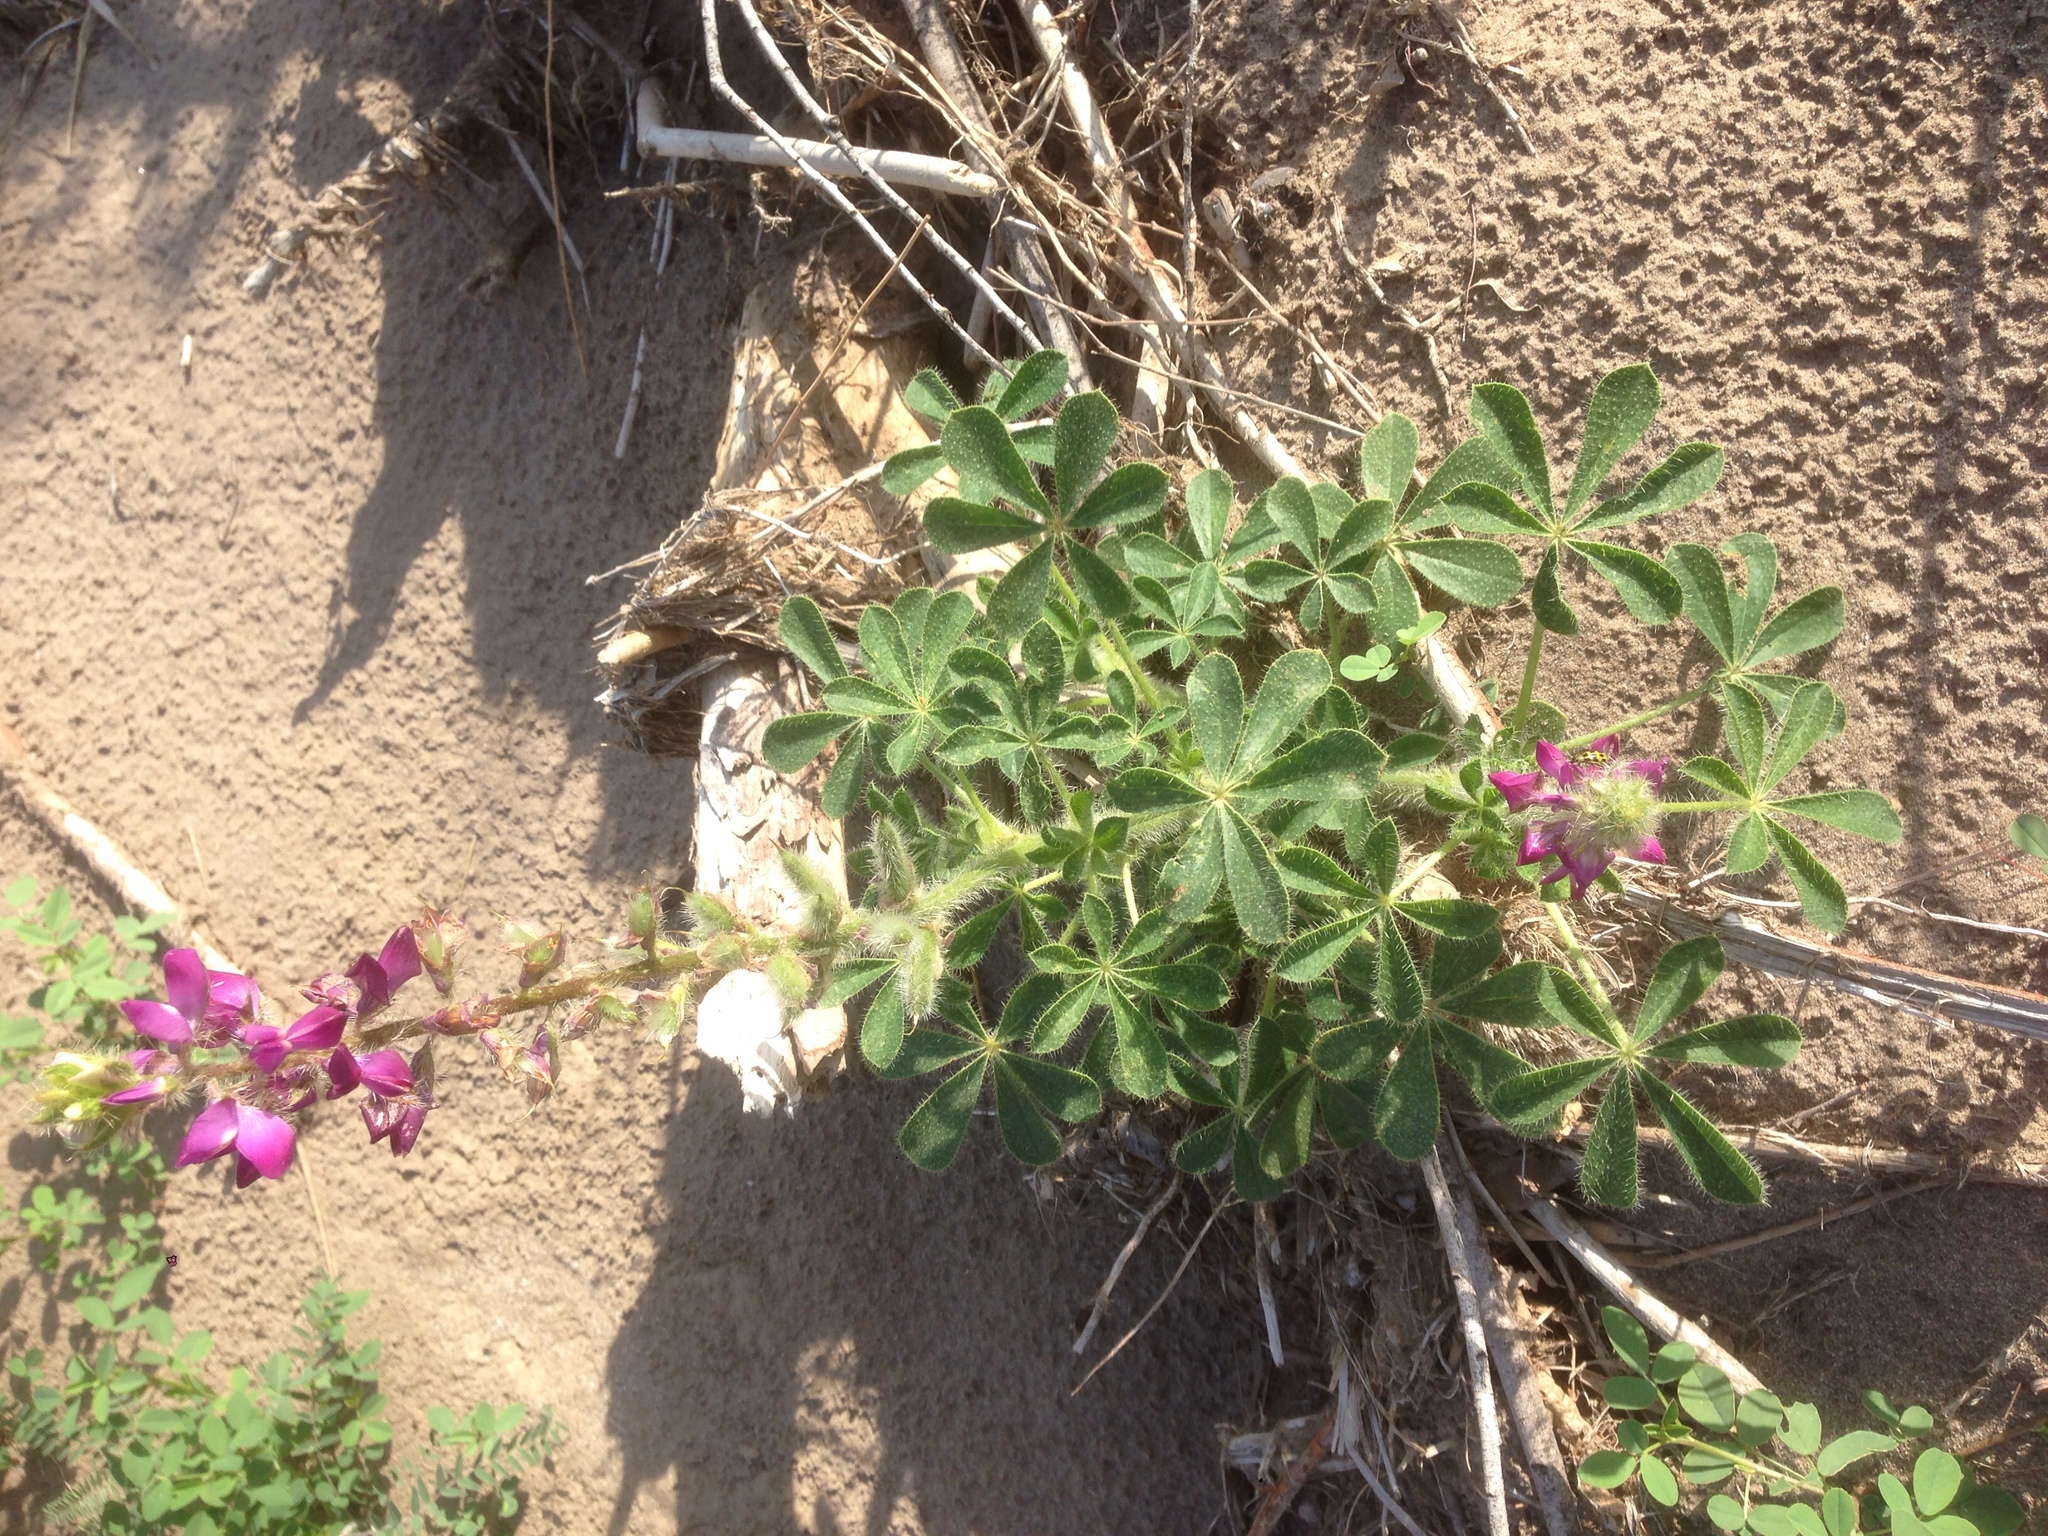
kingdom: Plantae
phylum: Tracheophyta
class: Magnoliopsida
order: Fabales
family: Fabaceae
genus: Lupinus
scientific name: Lupinus hirsutissimus
